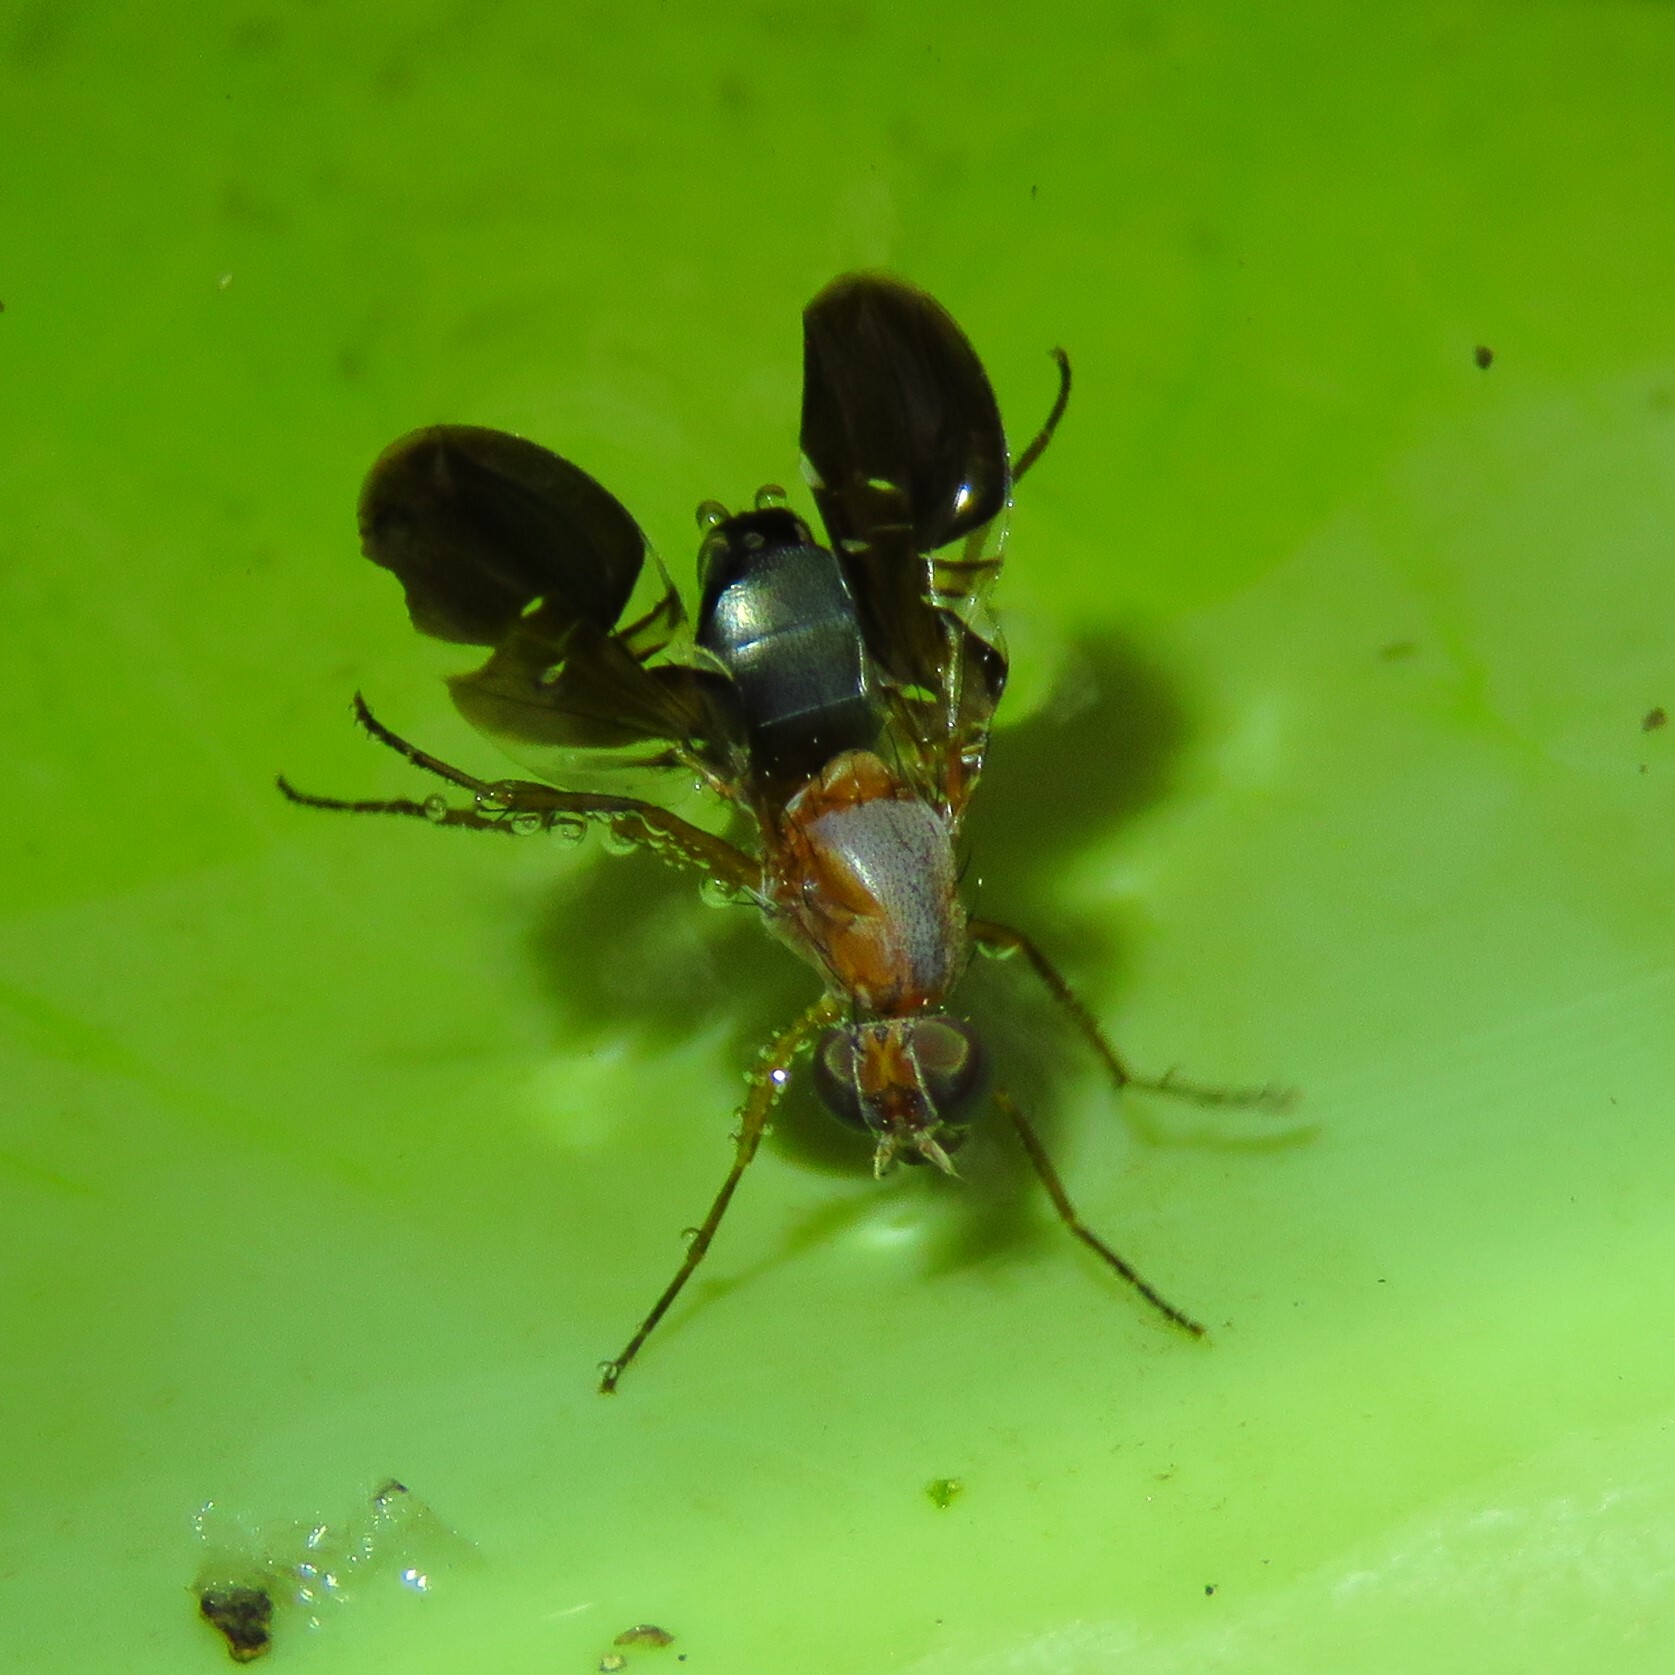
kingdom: Animalia
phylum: Arthropoda
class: Insecta
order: Diptera
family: Ulidiidae
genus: Delphinia
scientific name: Delphinia picta
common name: Common picture-winged fly
